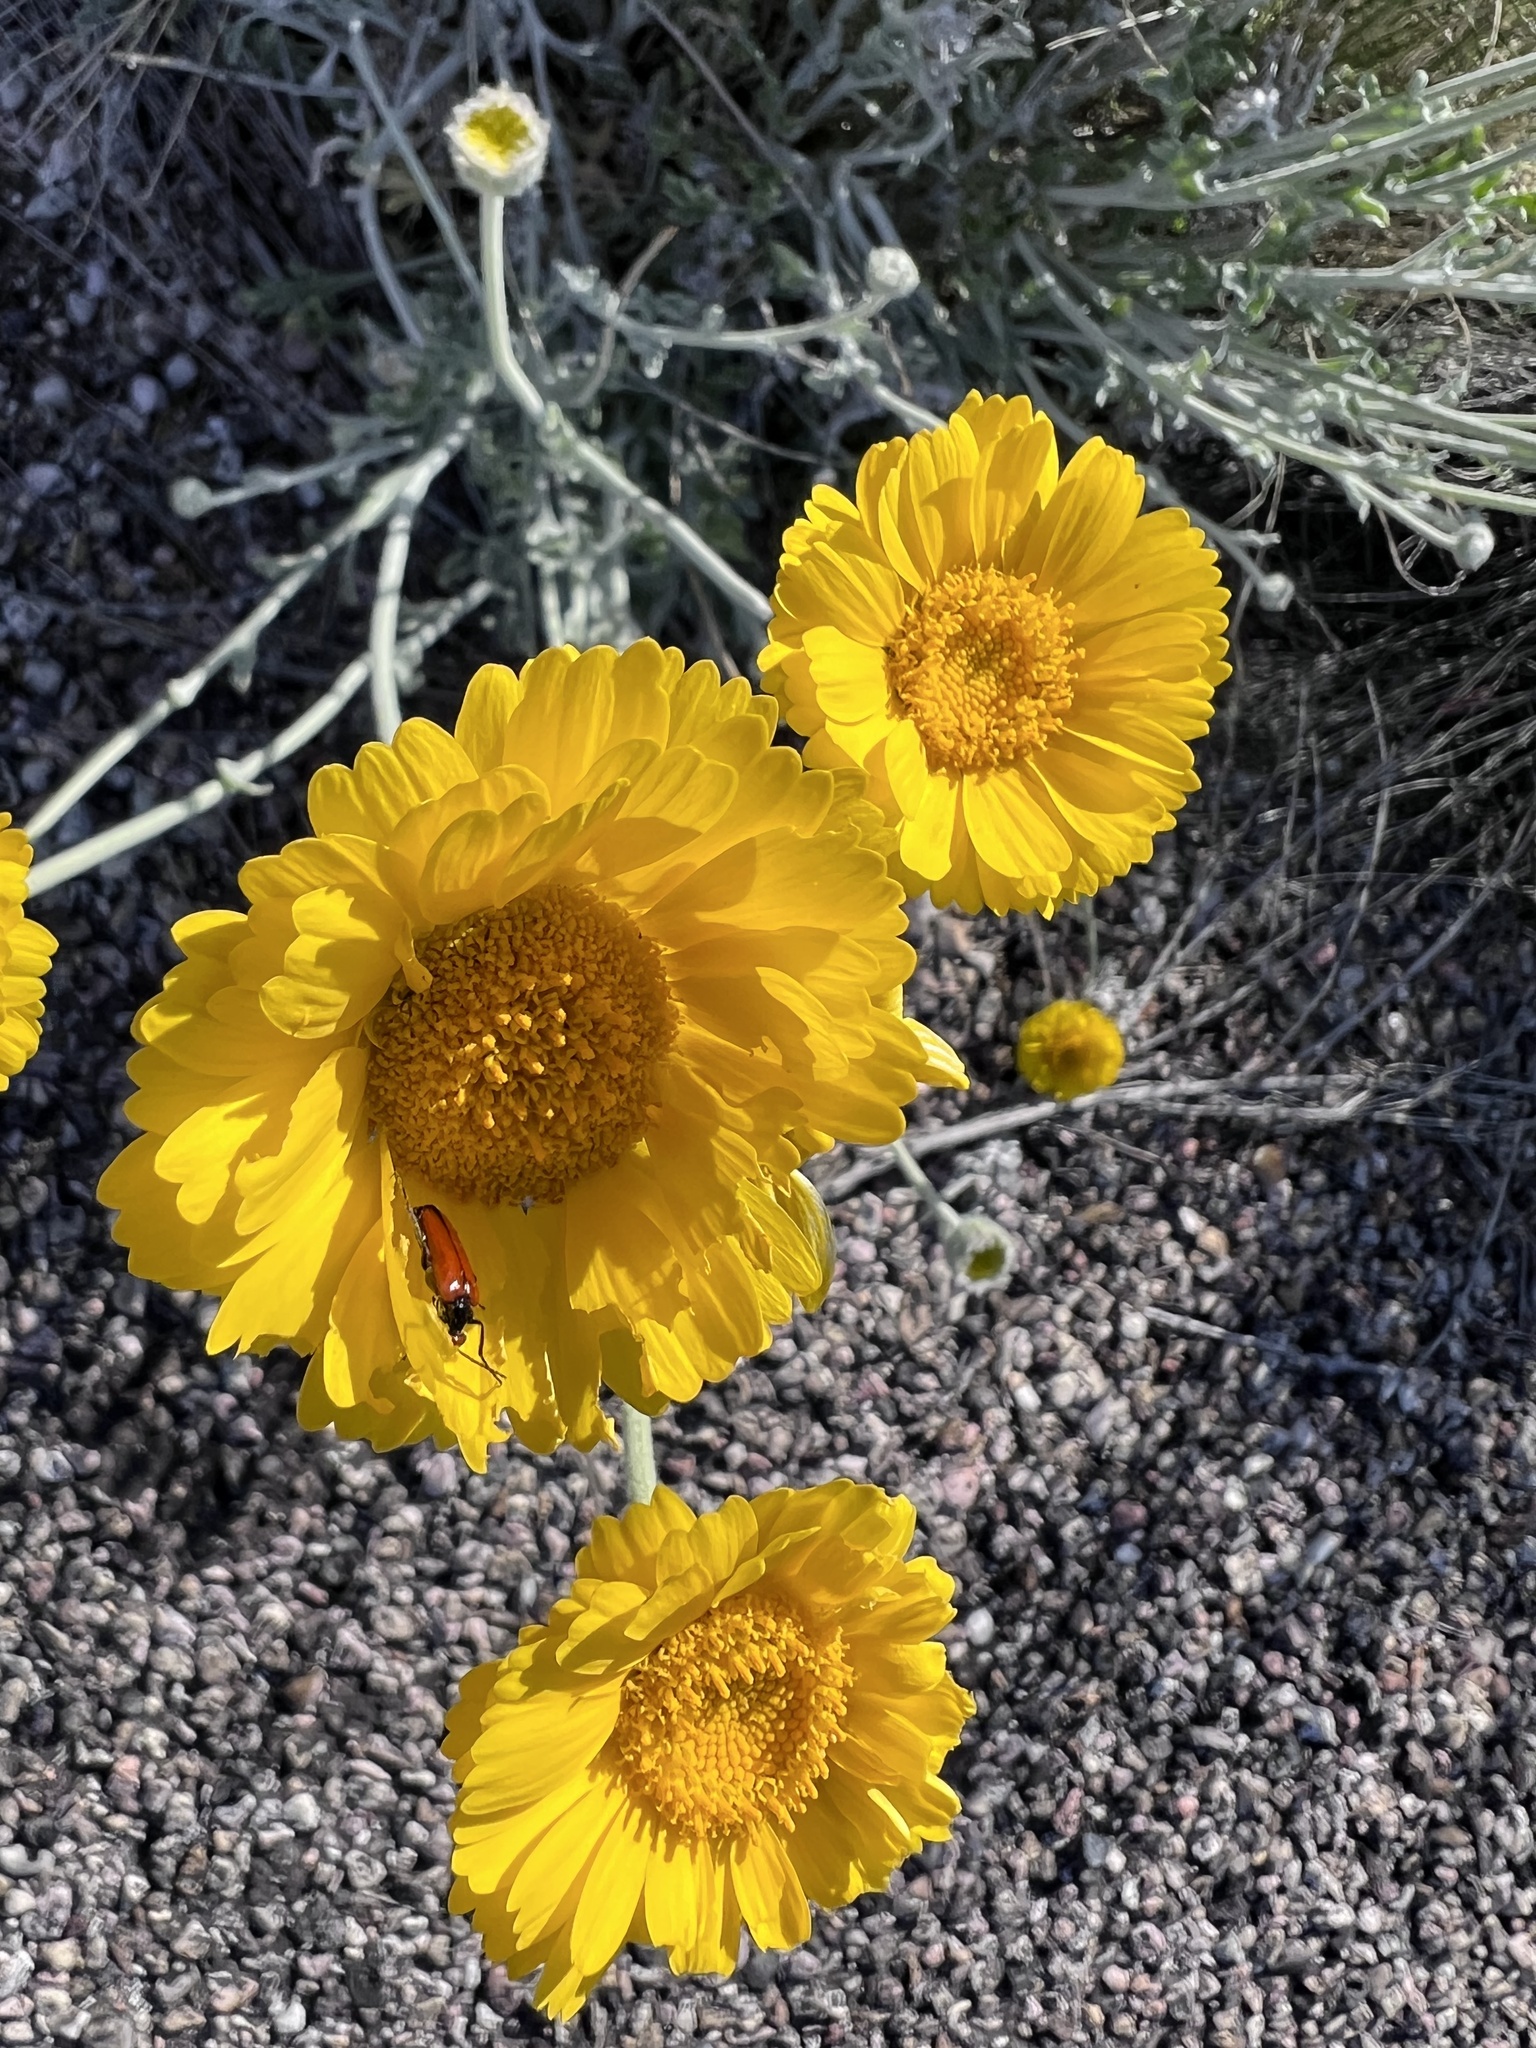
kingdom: Plantae
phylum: Tracheophyta
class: Magnoliopsida
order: Asterales
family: Asteraceae
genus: Baileya
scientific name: Baileya multiradiata
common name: Desert-marigold
